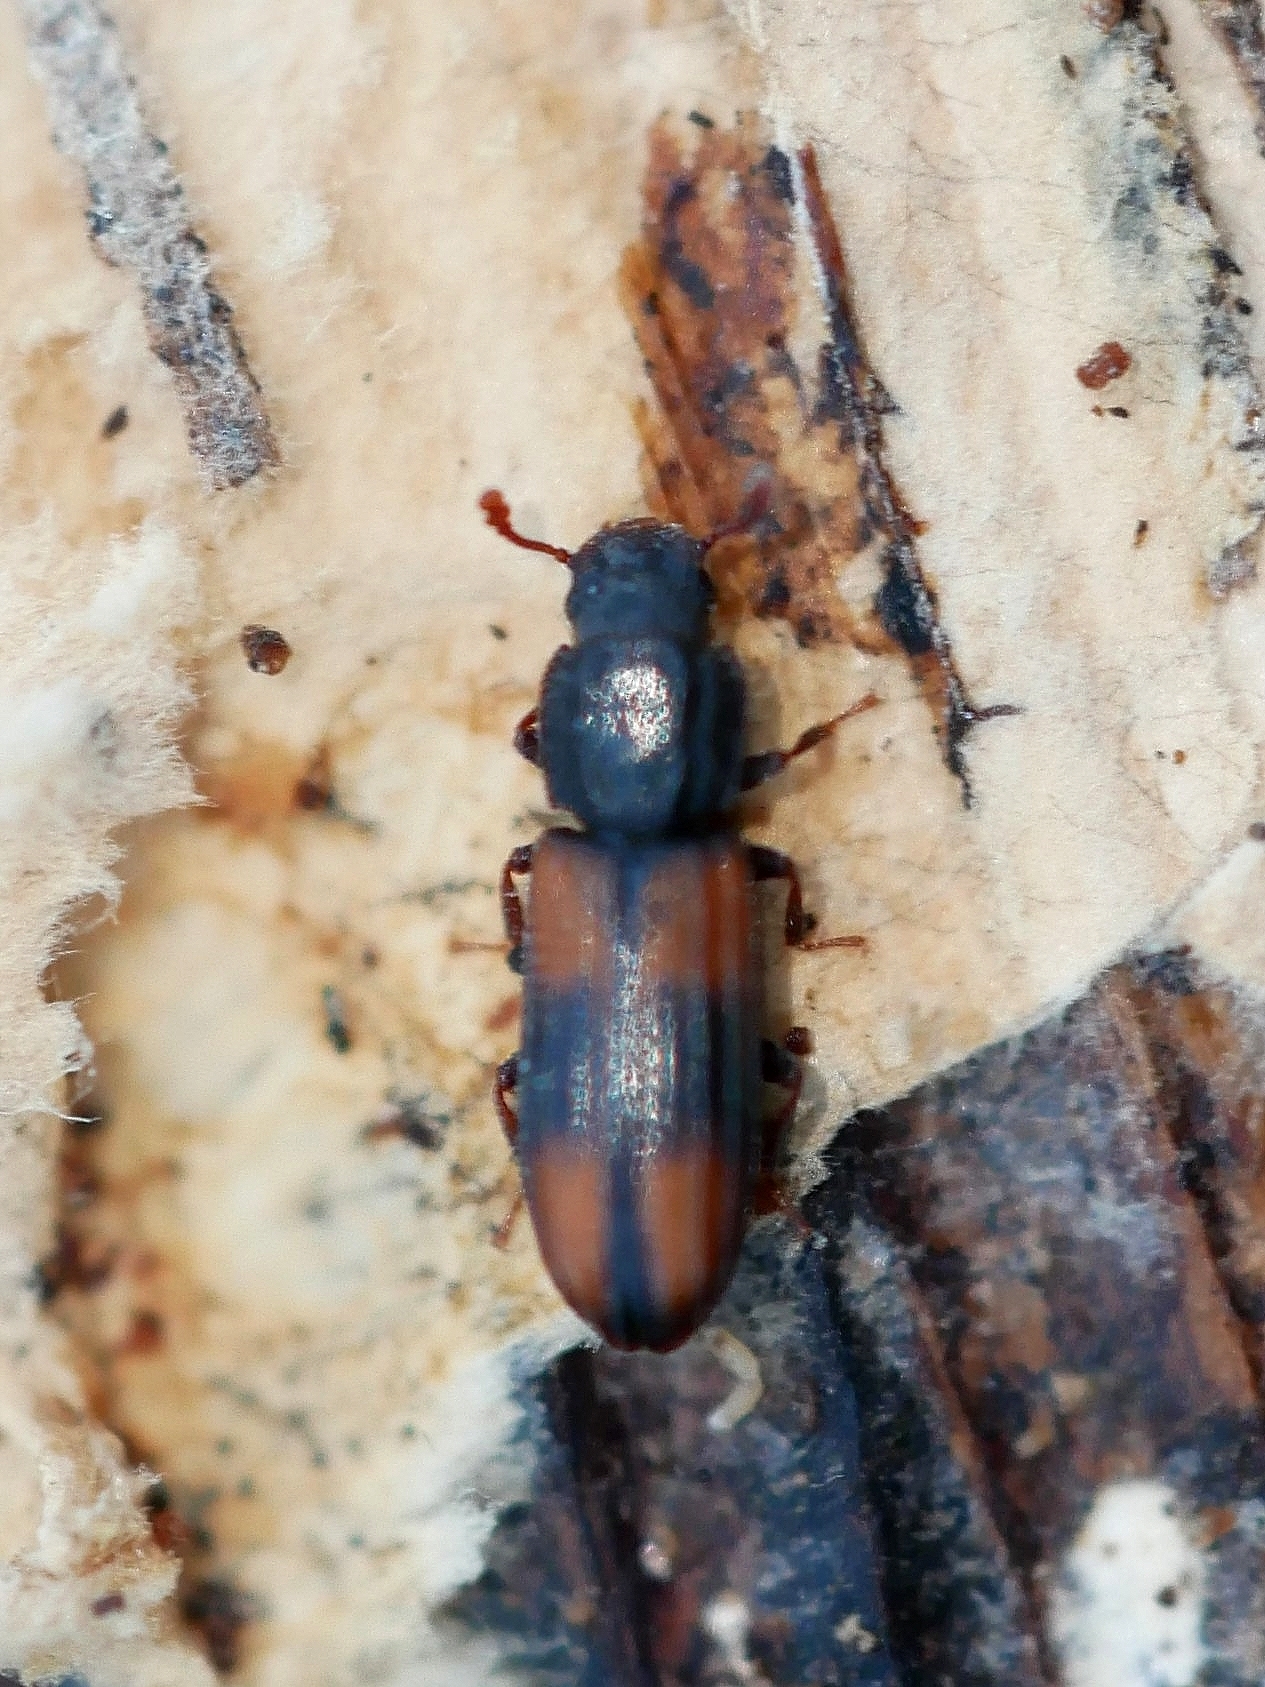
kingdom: Animalia
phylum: Arthropoda
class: Insecta
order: Coleoptera
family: Zopheridae
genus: Bitoma
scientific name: Bitoma crenata
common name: Bark beetle
